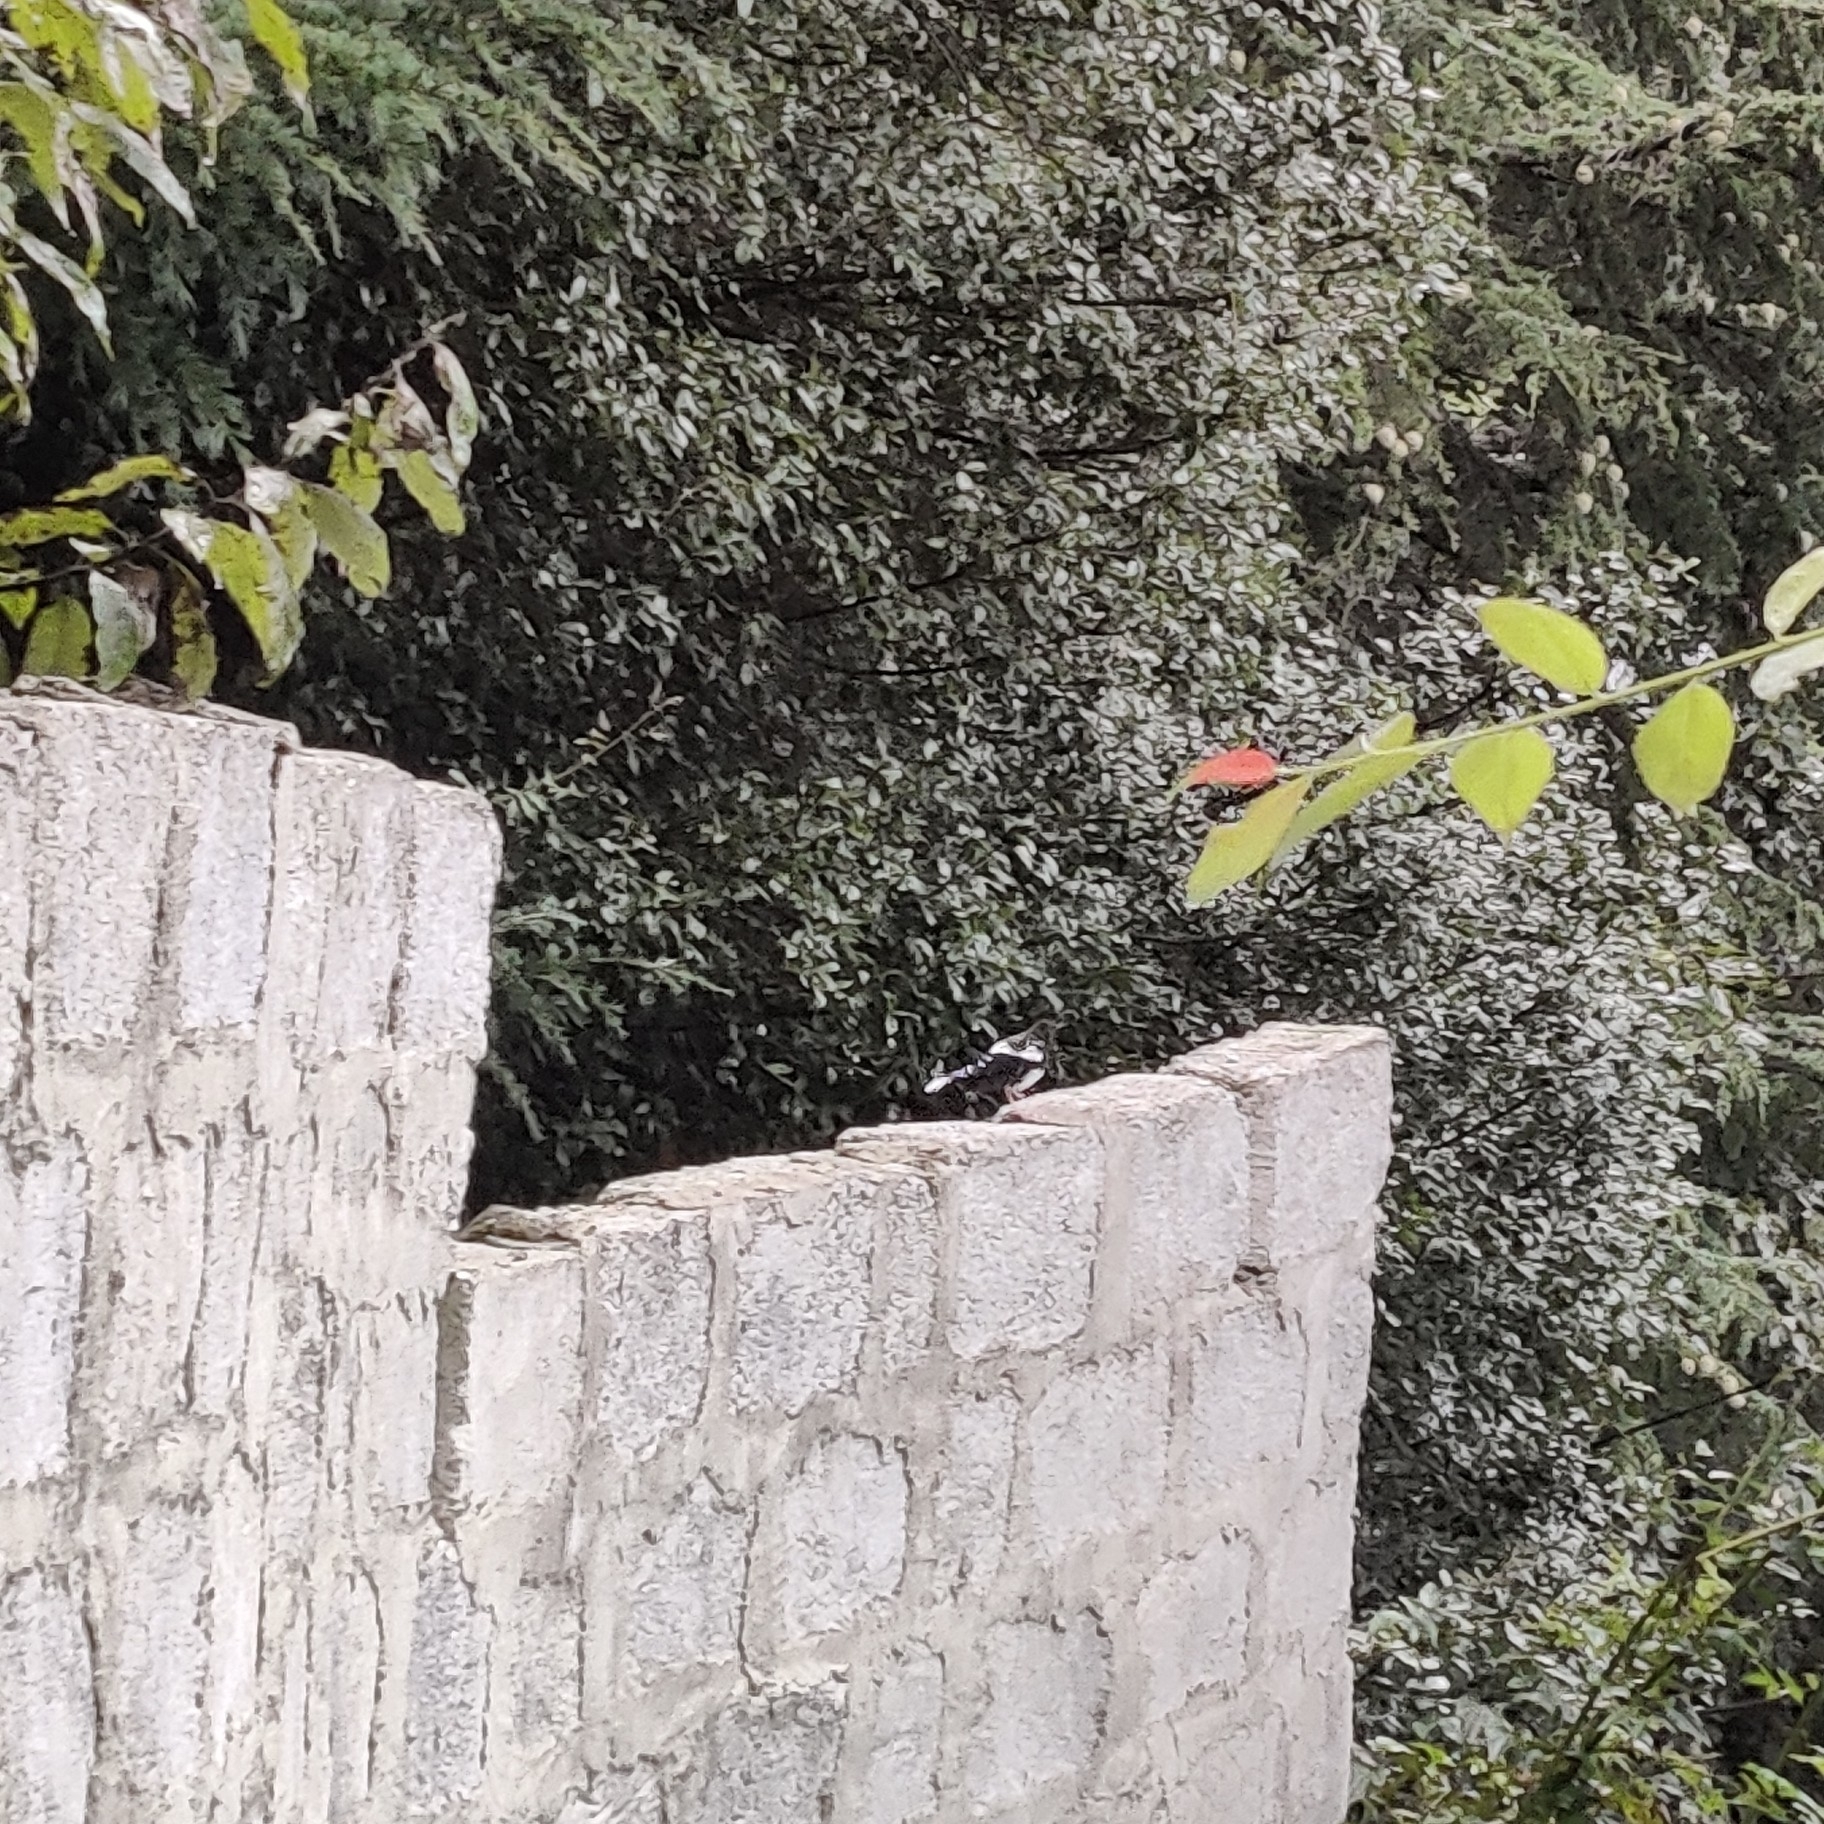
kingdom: Animalia
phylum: Chordata
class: Aves
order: Passeriformes
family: Muscicapidae
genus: Copsychus
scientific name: Copsychus saularis
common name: Oriental magpie-robin
